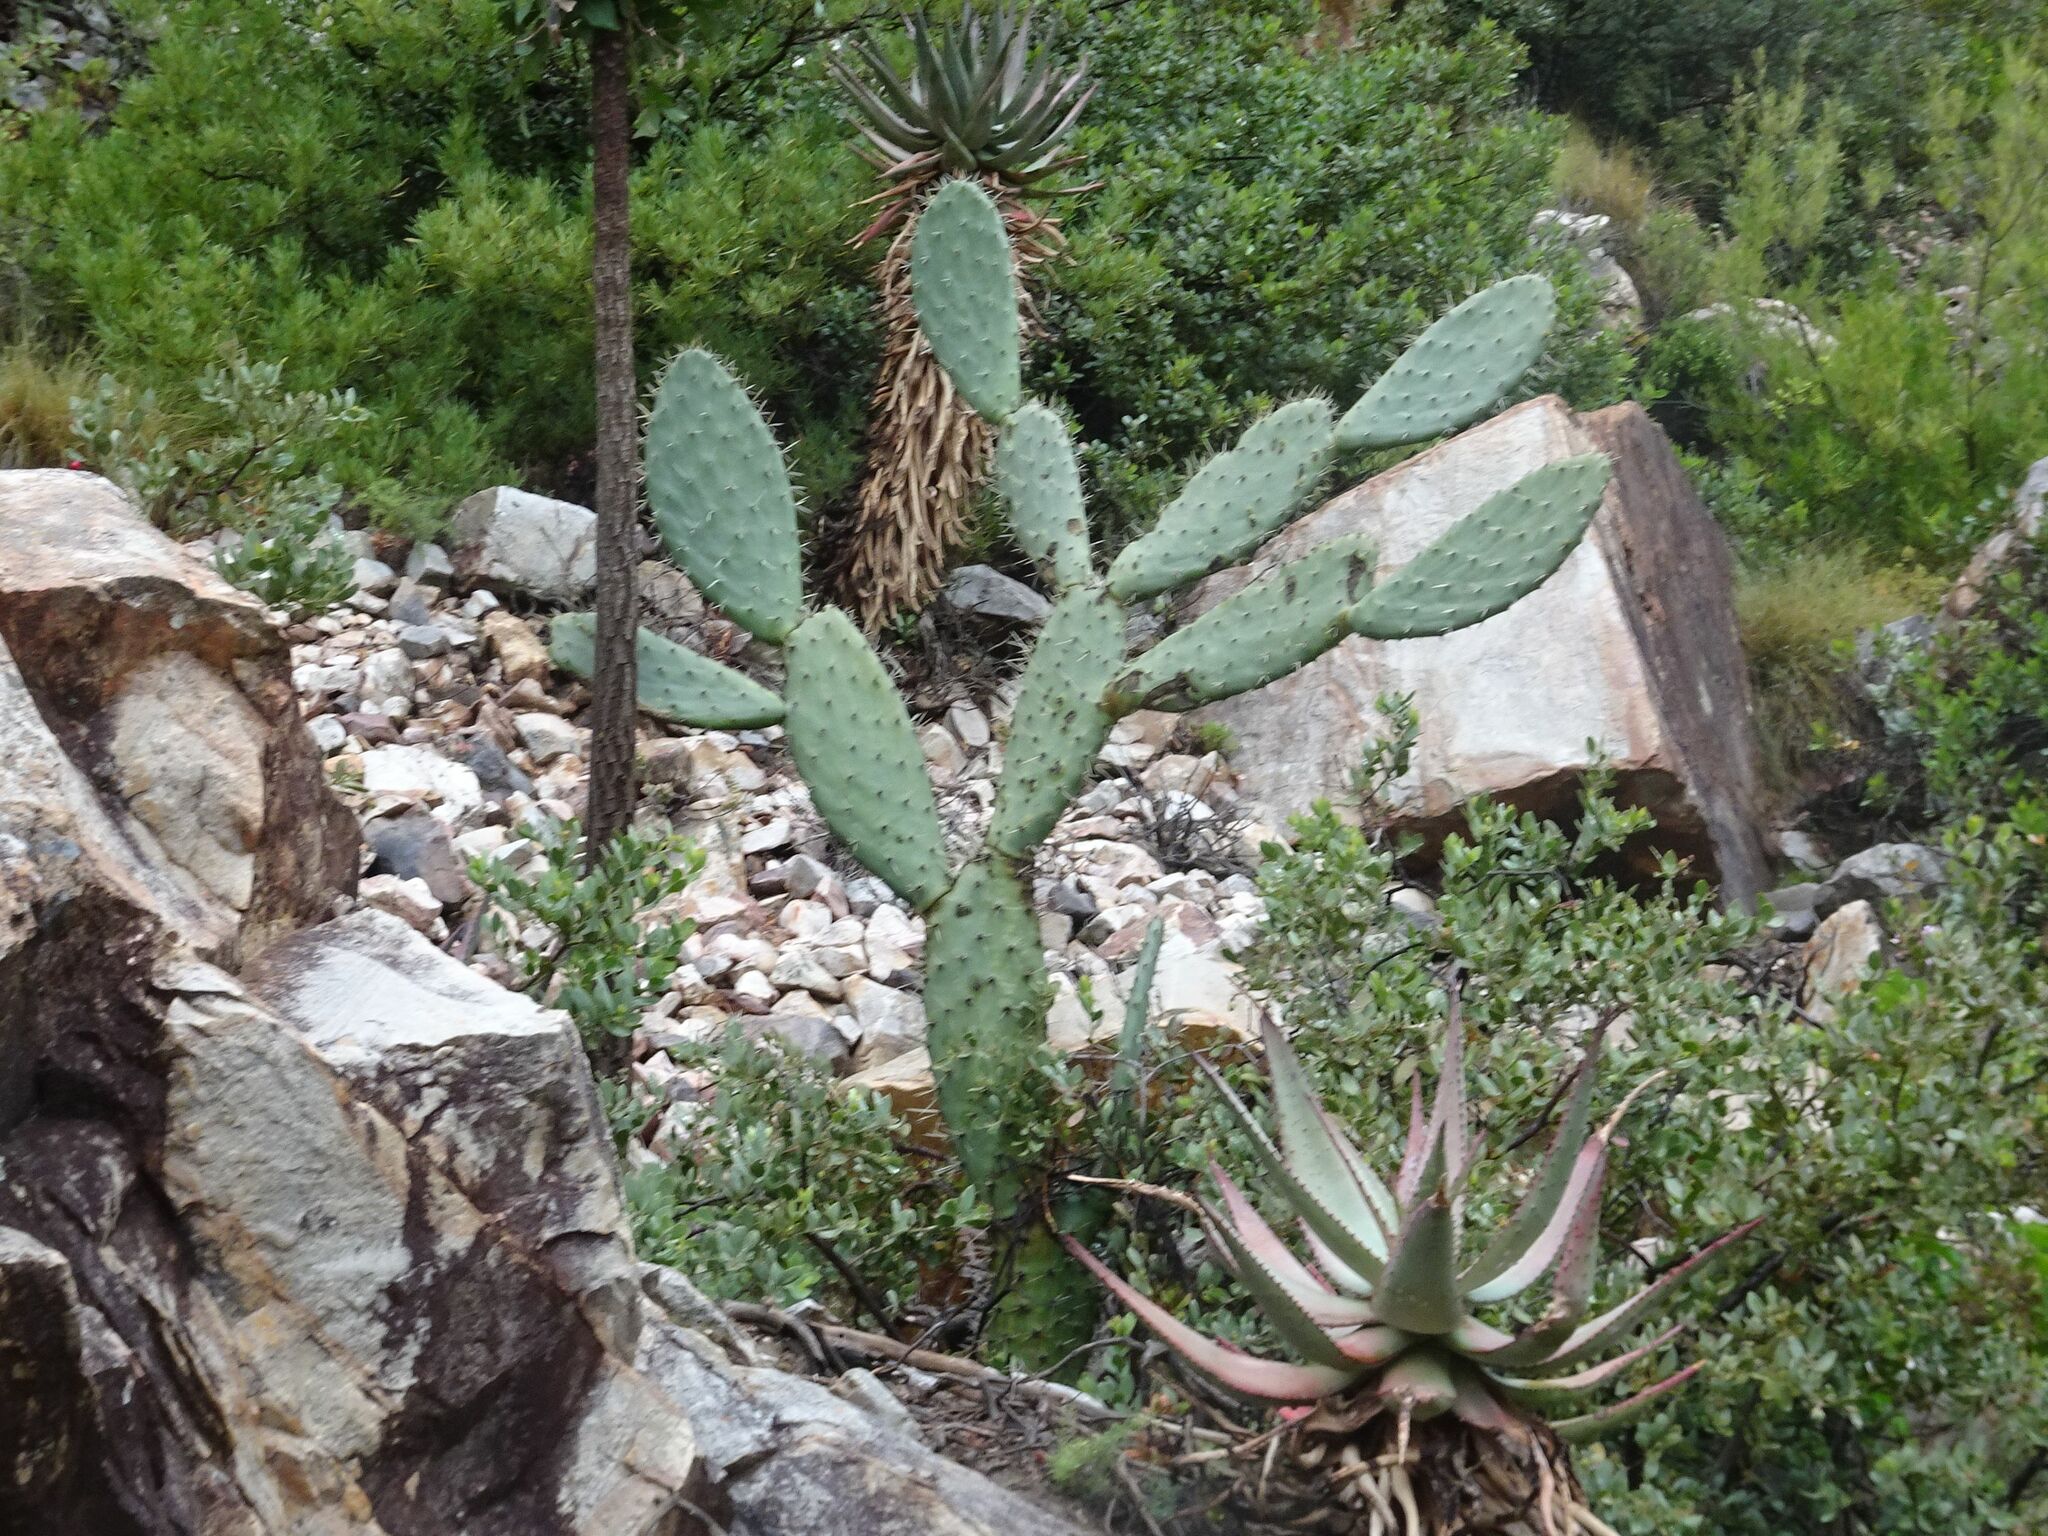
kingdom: Plantae
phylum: Tracheophyta
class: Magnoliopsida
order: Caryophyllales
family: Cactaceae
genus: Opuntia
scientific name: Opuntia ficus-indica
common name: Barbary fig
